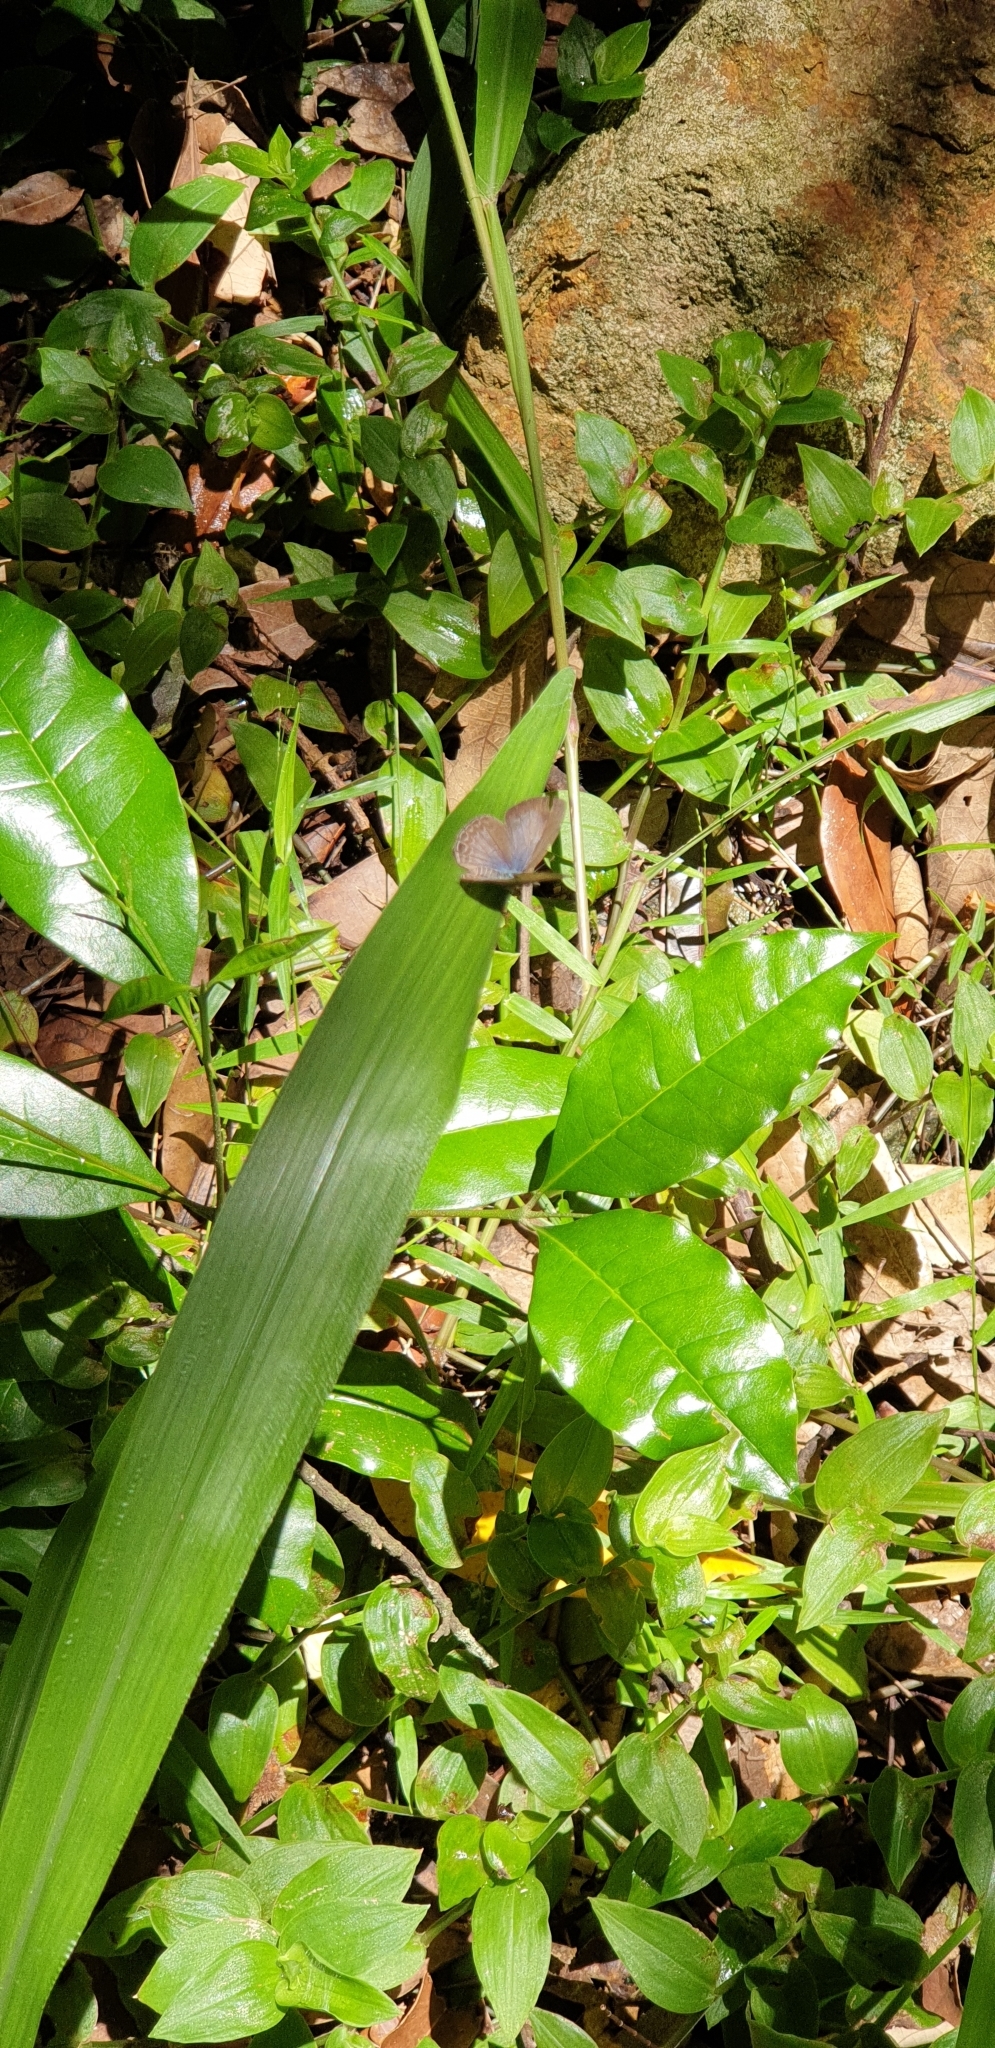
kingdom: Animalia
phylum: Arthropoda
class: Insecta
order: Lepidoptera
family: Lycaenidae
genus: Nacaduba
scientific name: Nacaduba berenice
